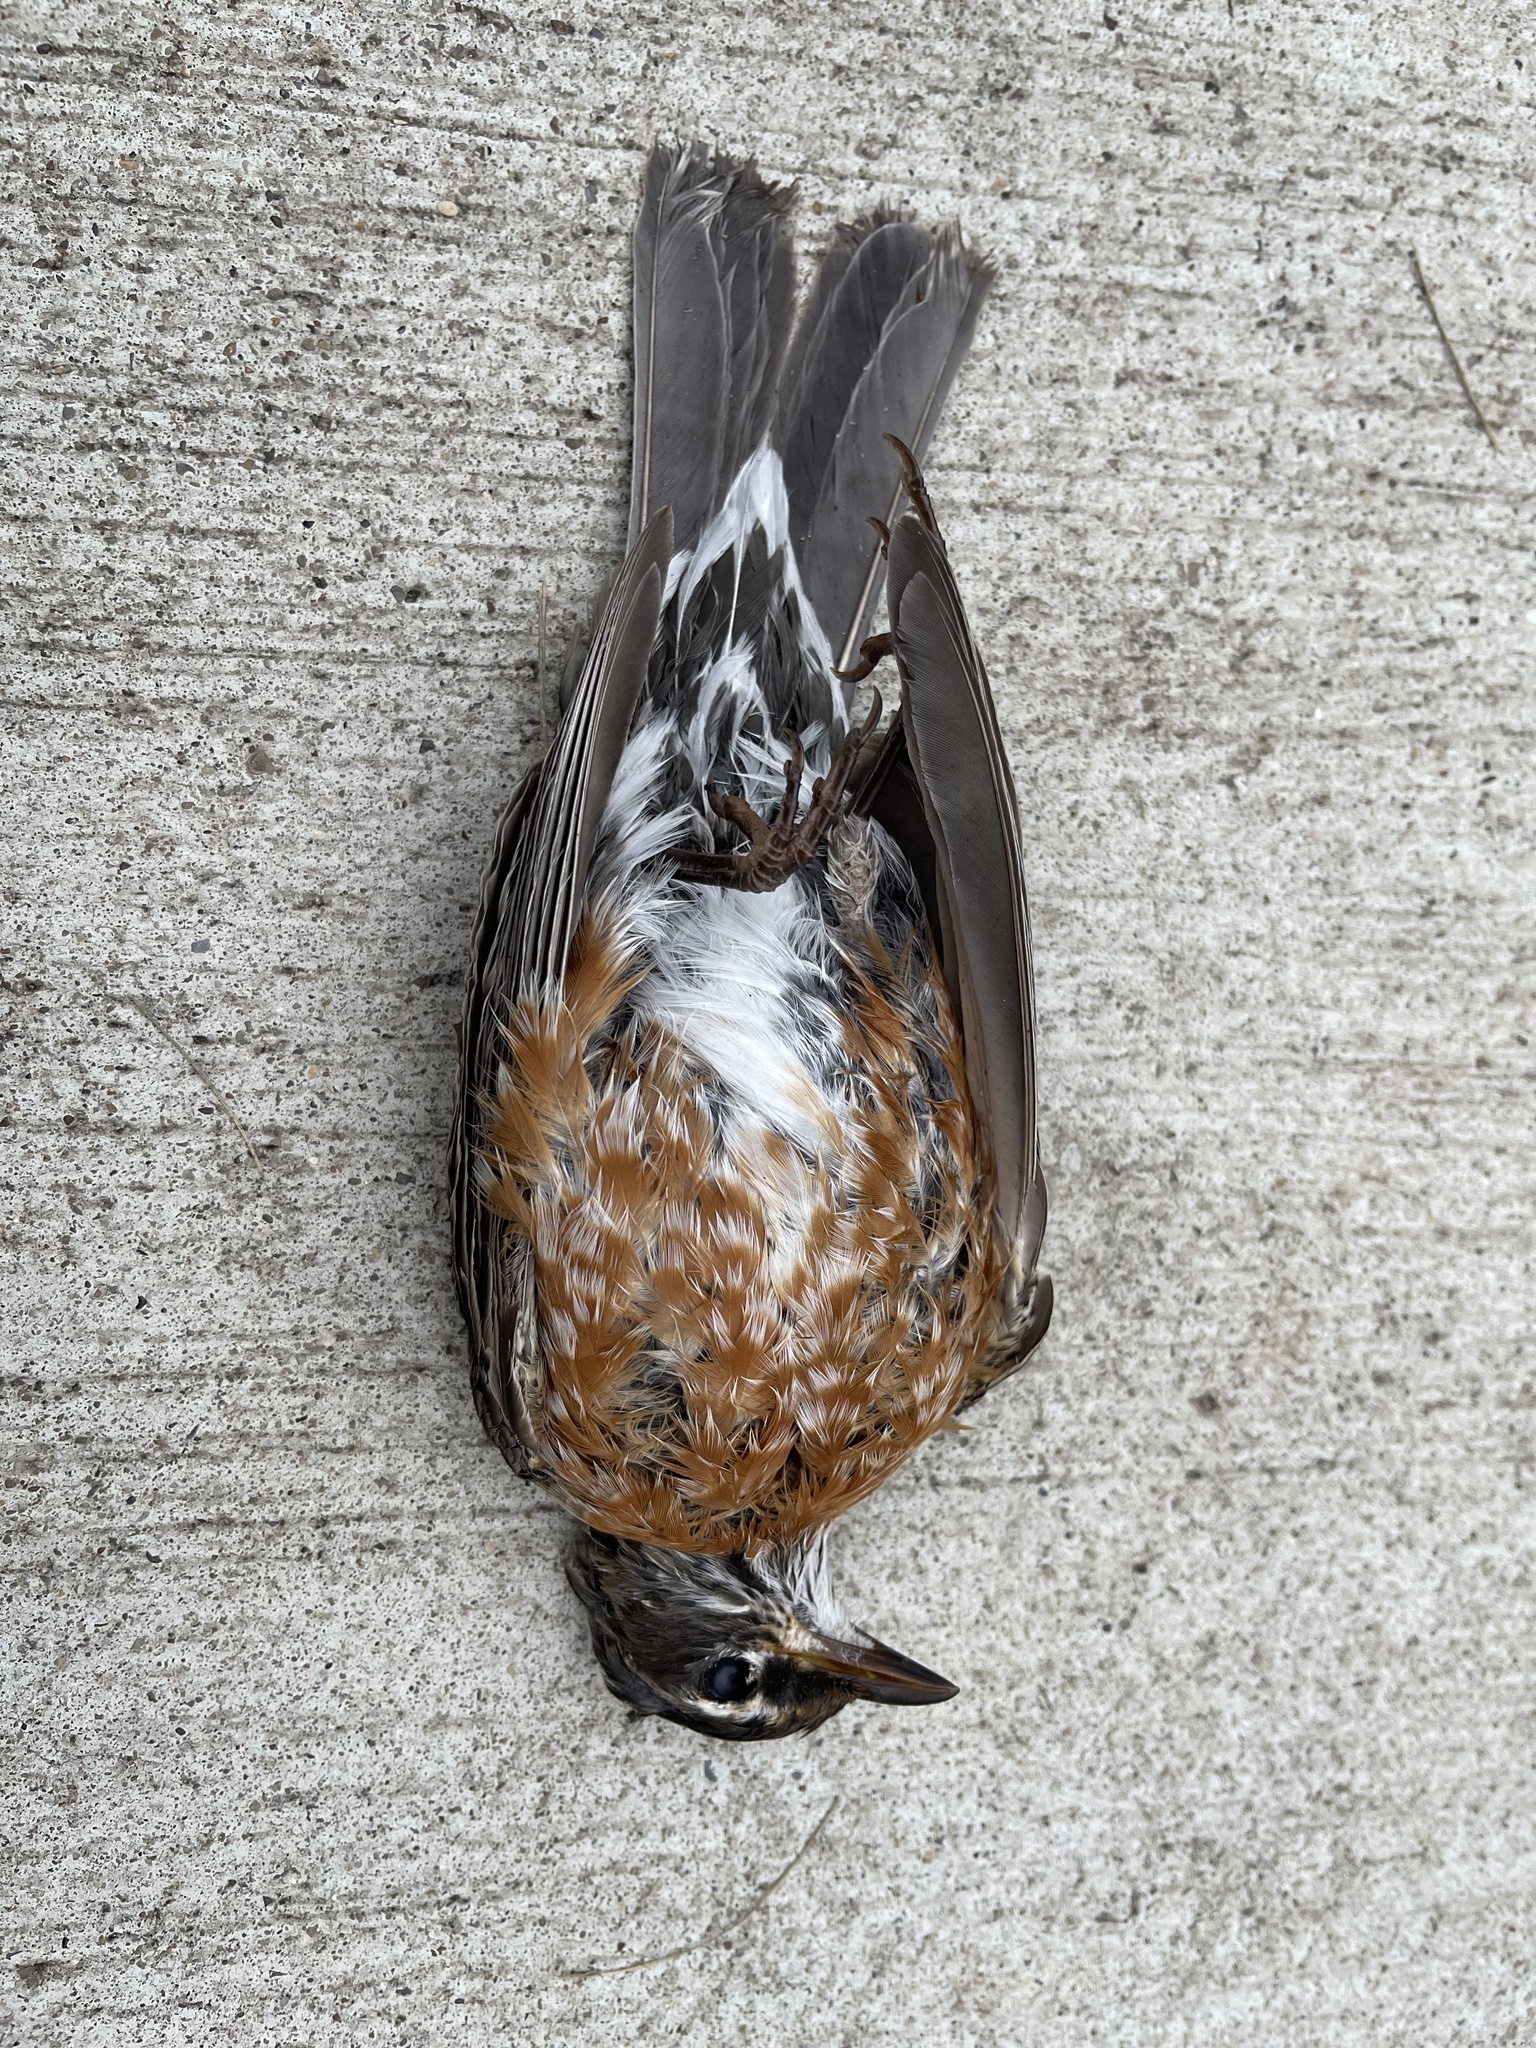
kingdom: Animalia
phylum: Chordata
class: Aves
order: Passeriformes
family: Turdidae
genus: Turdus
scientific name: Turdus migratorius
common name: American robin
